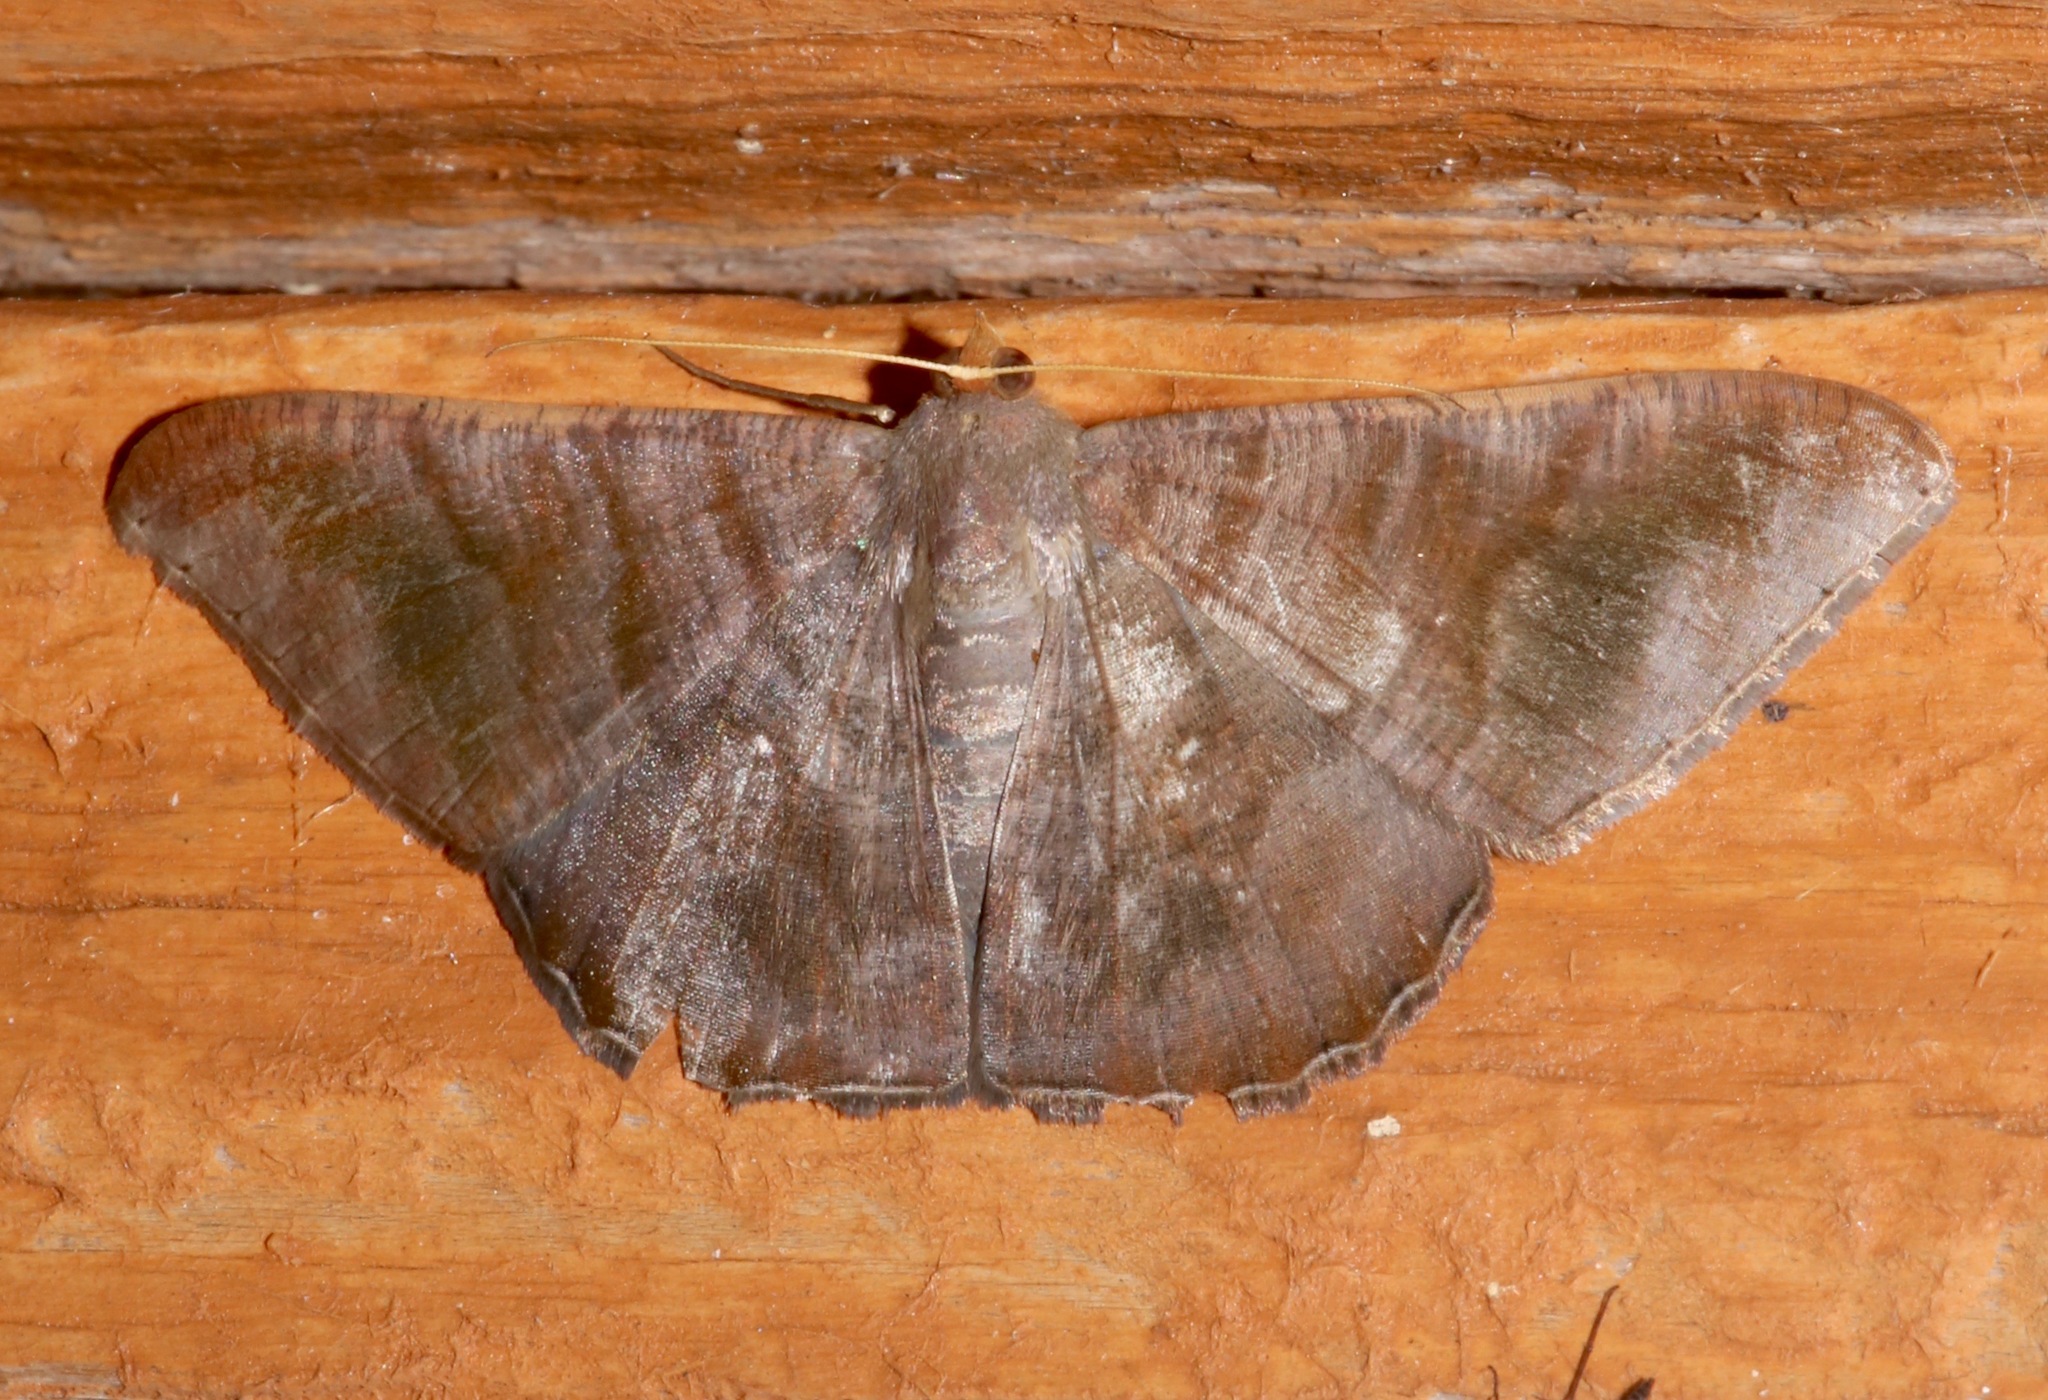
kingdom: Animalia
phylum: Arthropoda
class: Insecta
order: Lepidoptera
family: Geometridae
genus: Sphacelodes
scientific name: Sphacelodes vulneraria
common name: Looper moth
